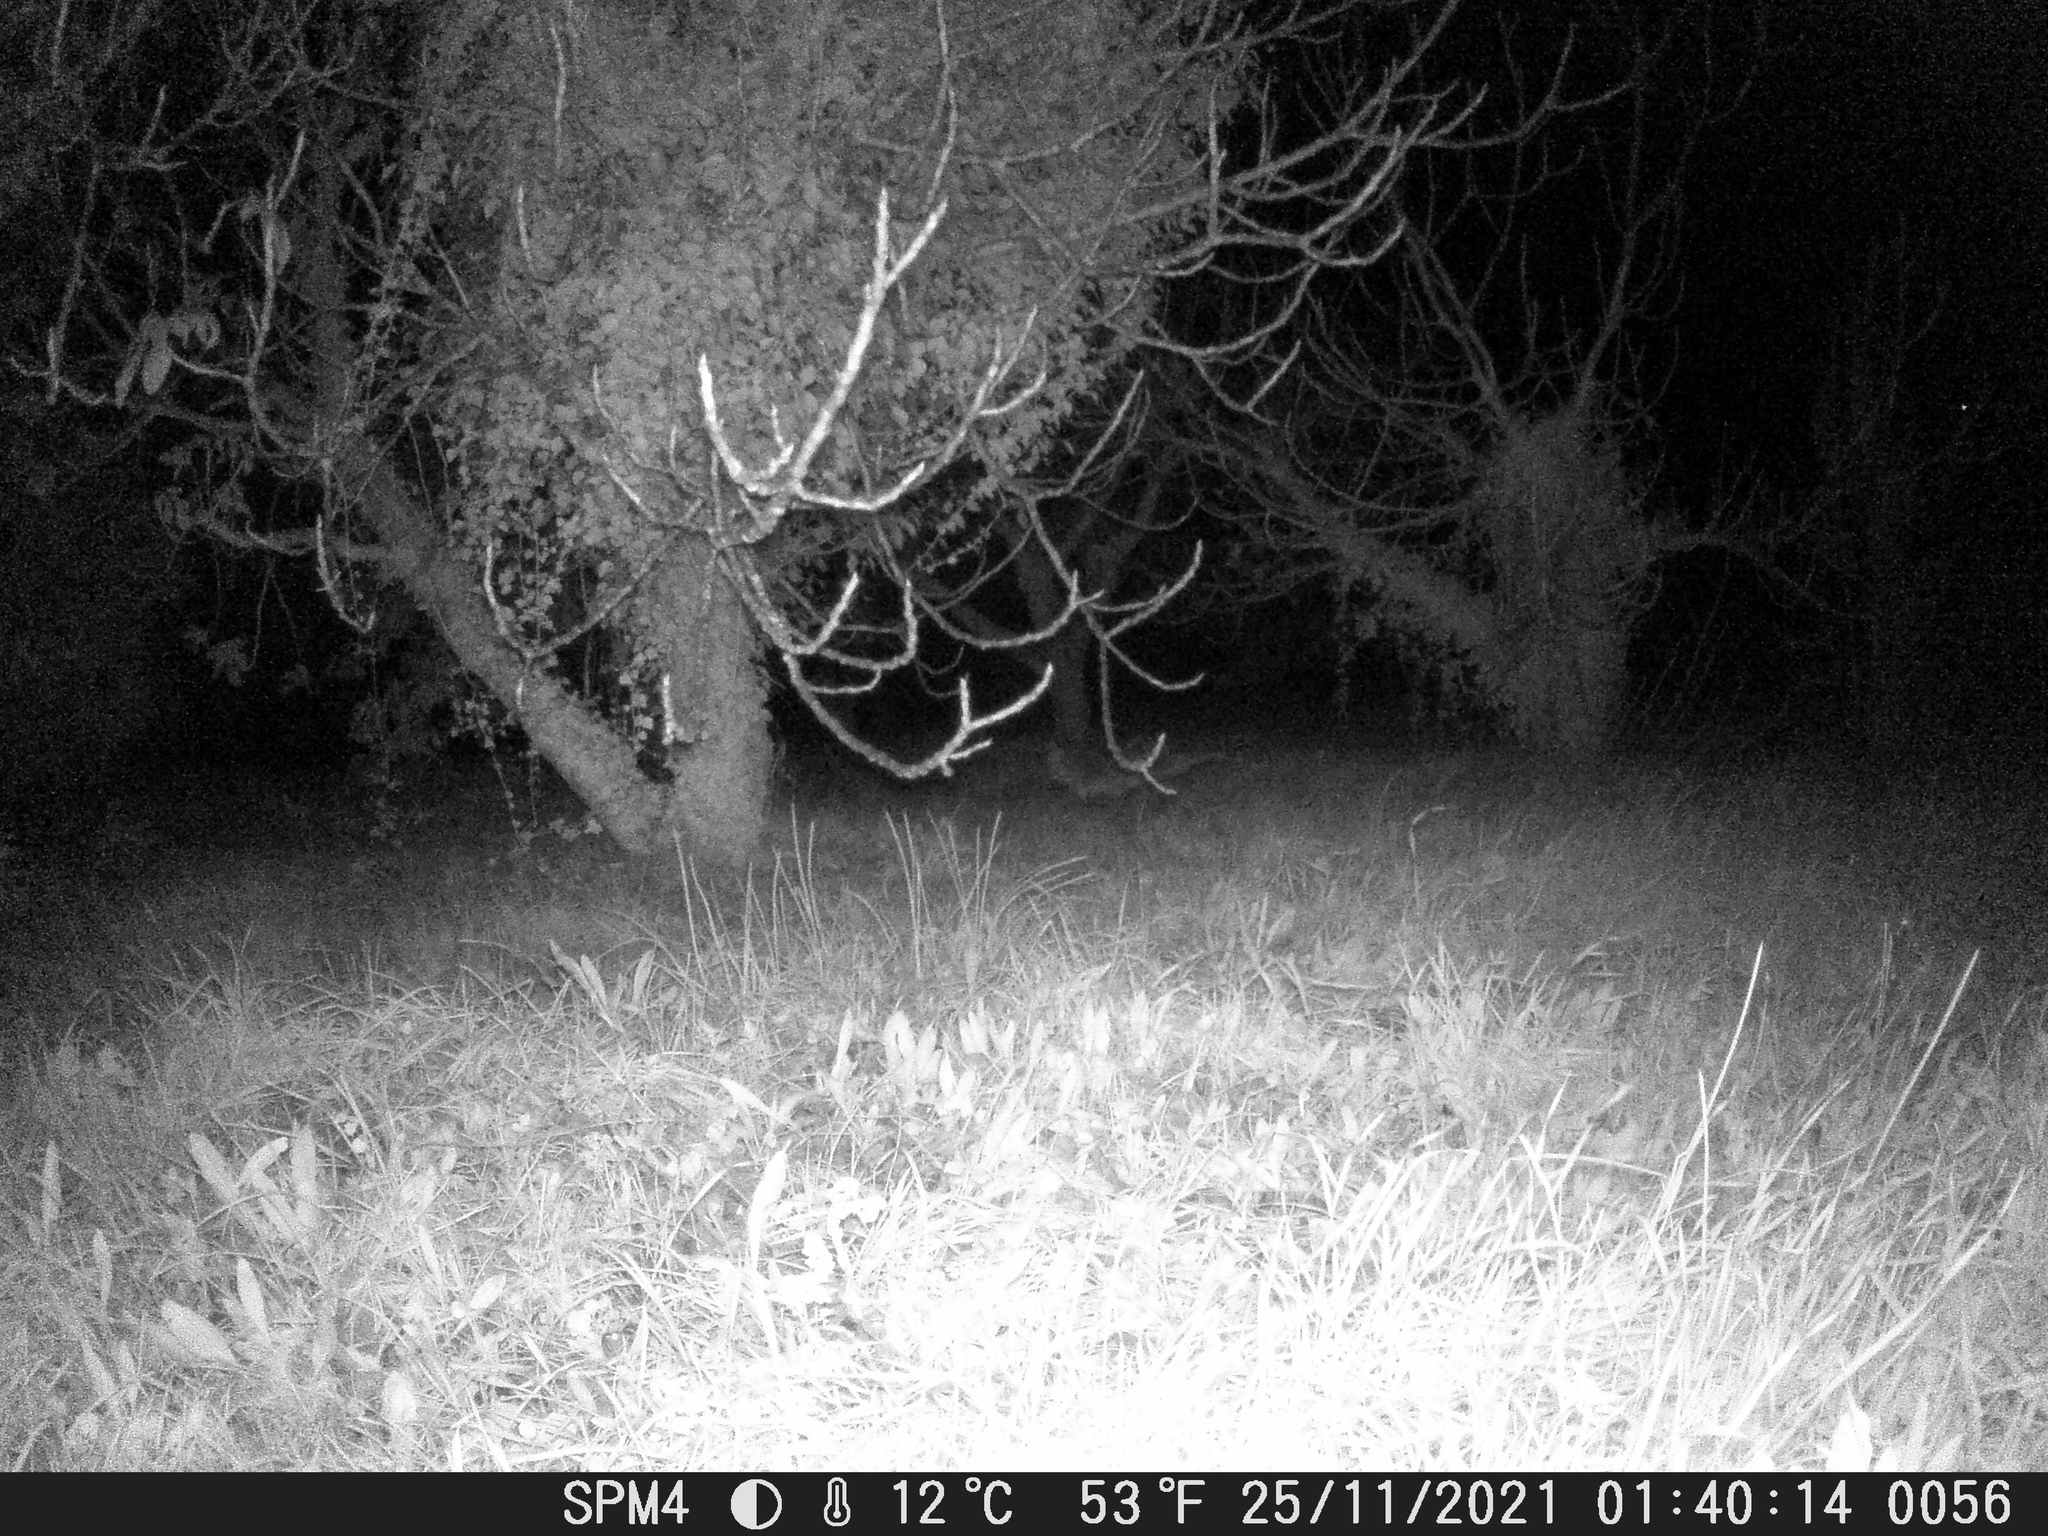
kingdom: Animalia
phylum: Chordata
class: Mammalia
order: Carnivora
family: Canidae
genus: Vulpes
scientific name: Vulpes vulpes
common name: Red fox
